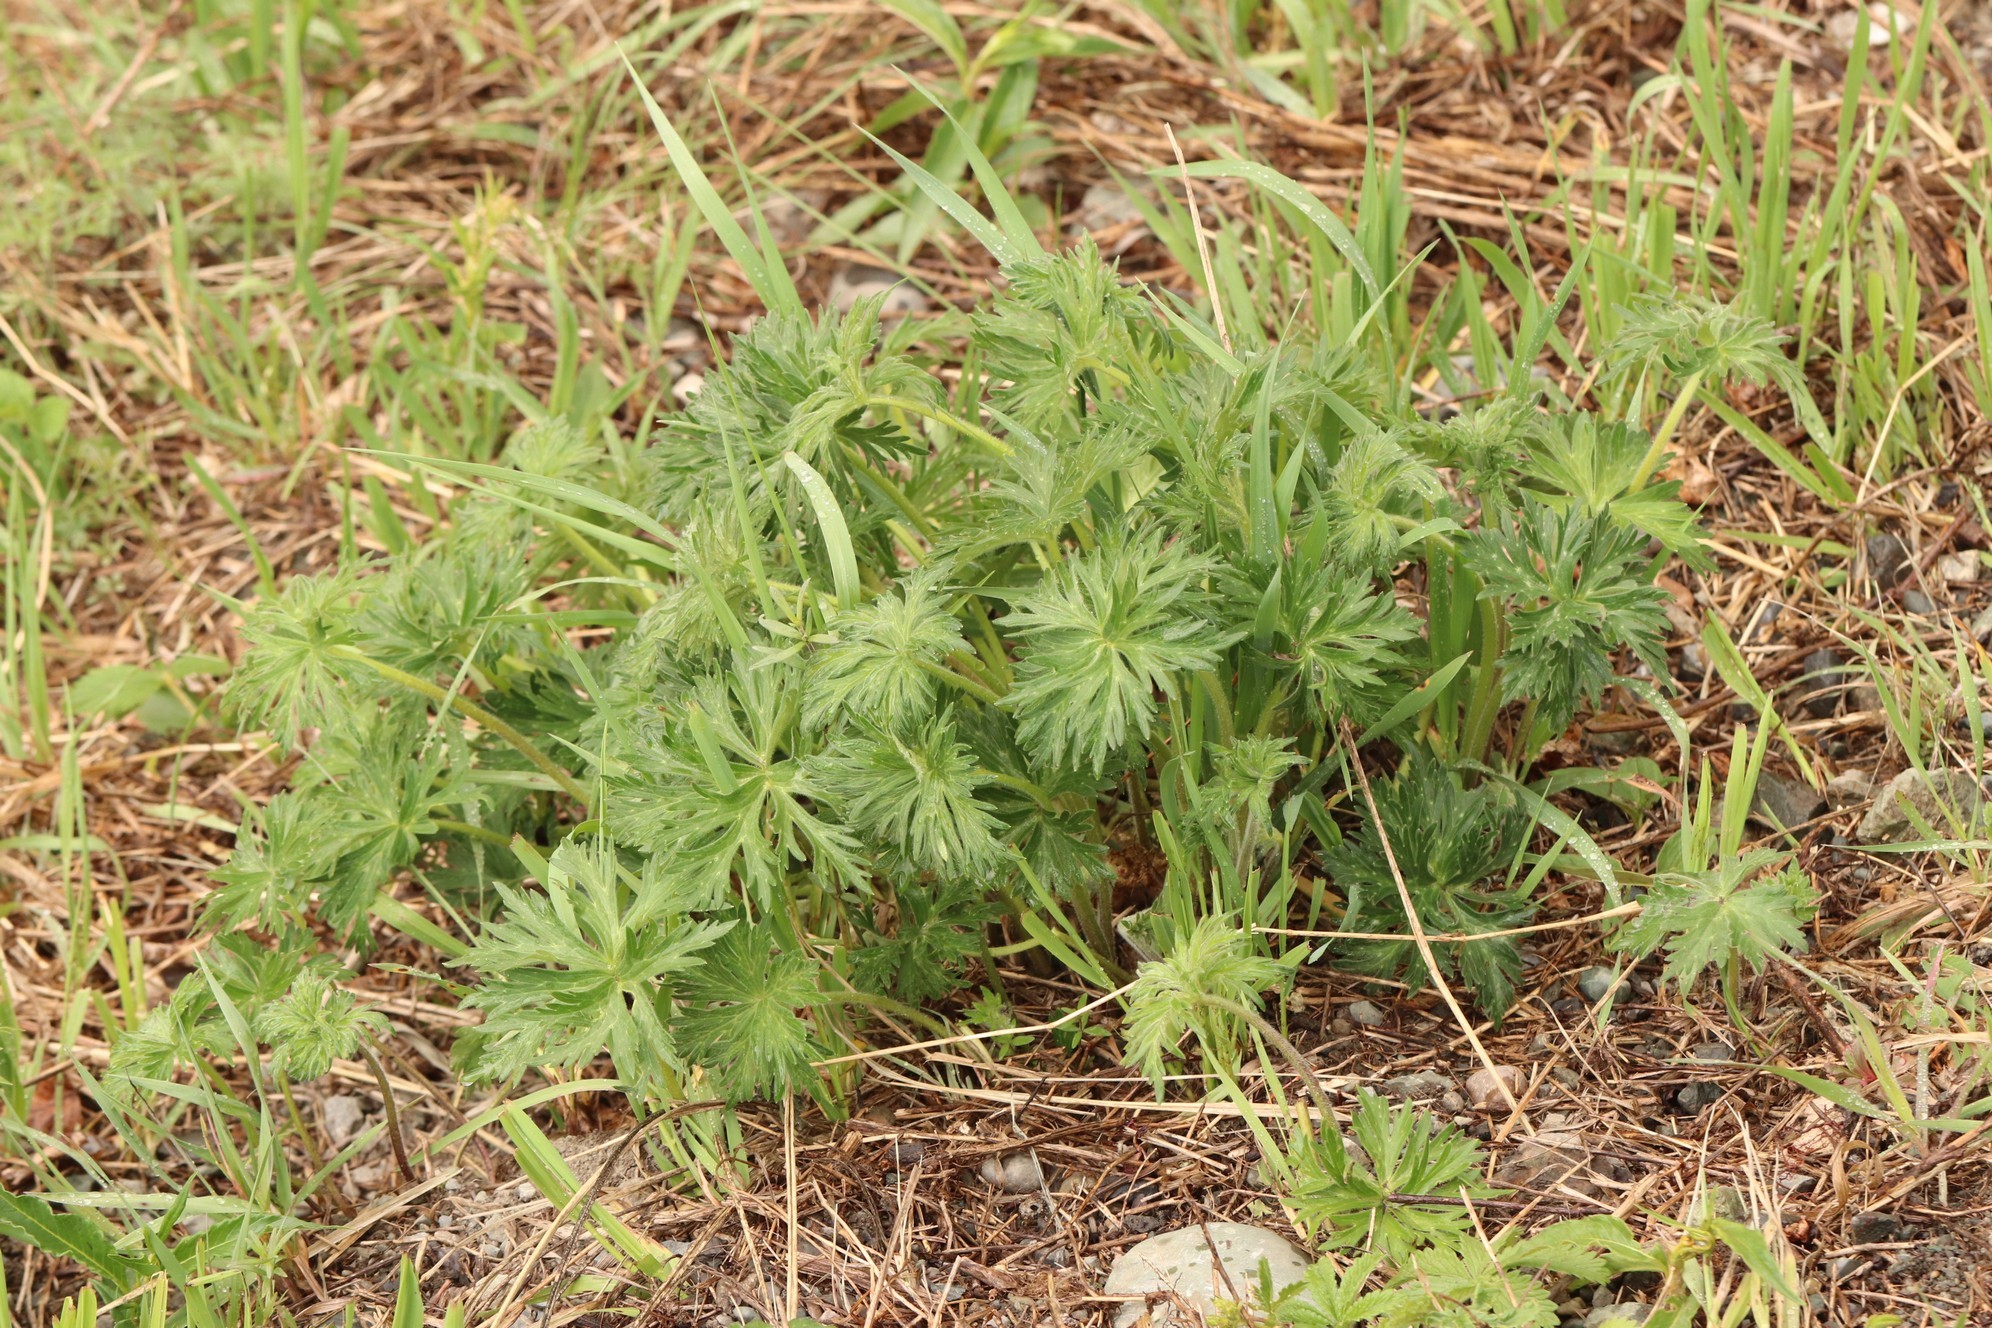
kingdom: Plantae
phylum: Tracheophyta
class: Magnoliopsida
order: Geraniales
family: Geraniaceae
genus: Geranium
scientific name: Geranium pratense
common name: Meadow crane's-bill
